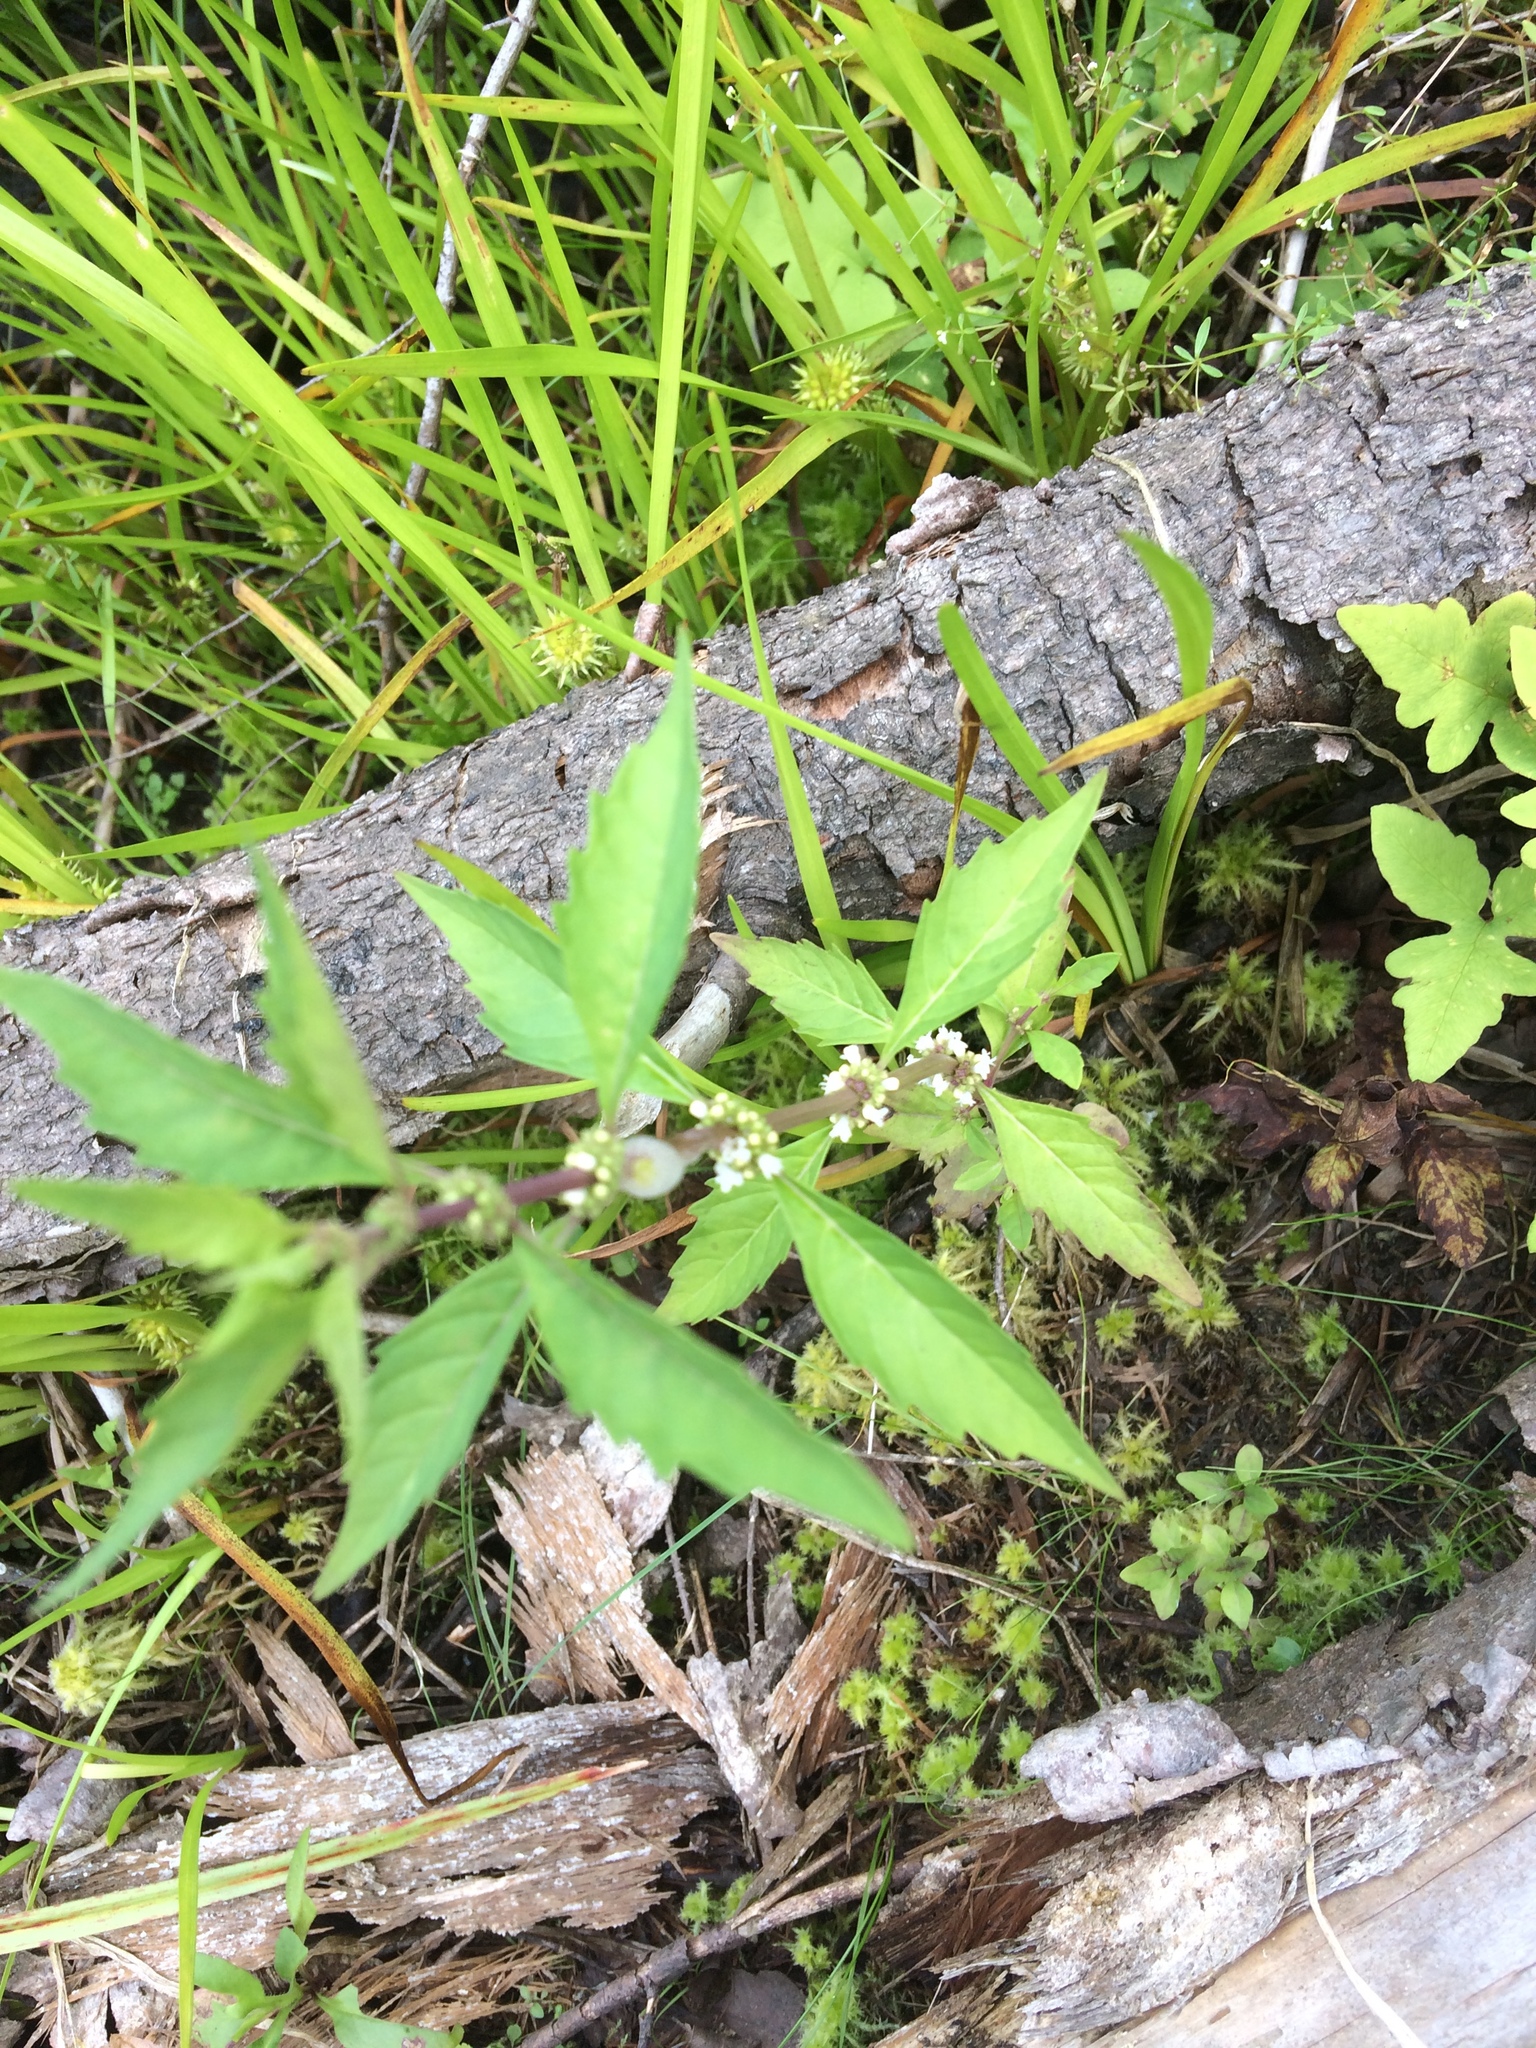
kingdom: Plantae
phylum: Tracheophyta
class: Magnoliopsida
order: Lamiales
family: Lamiaceae
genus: Lycopus
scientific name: Lycopus uniflorus
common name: Northern bugleweed
